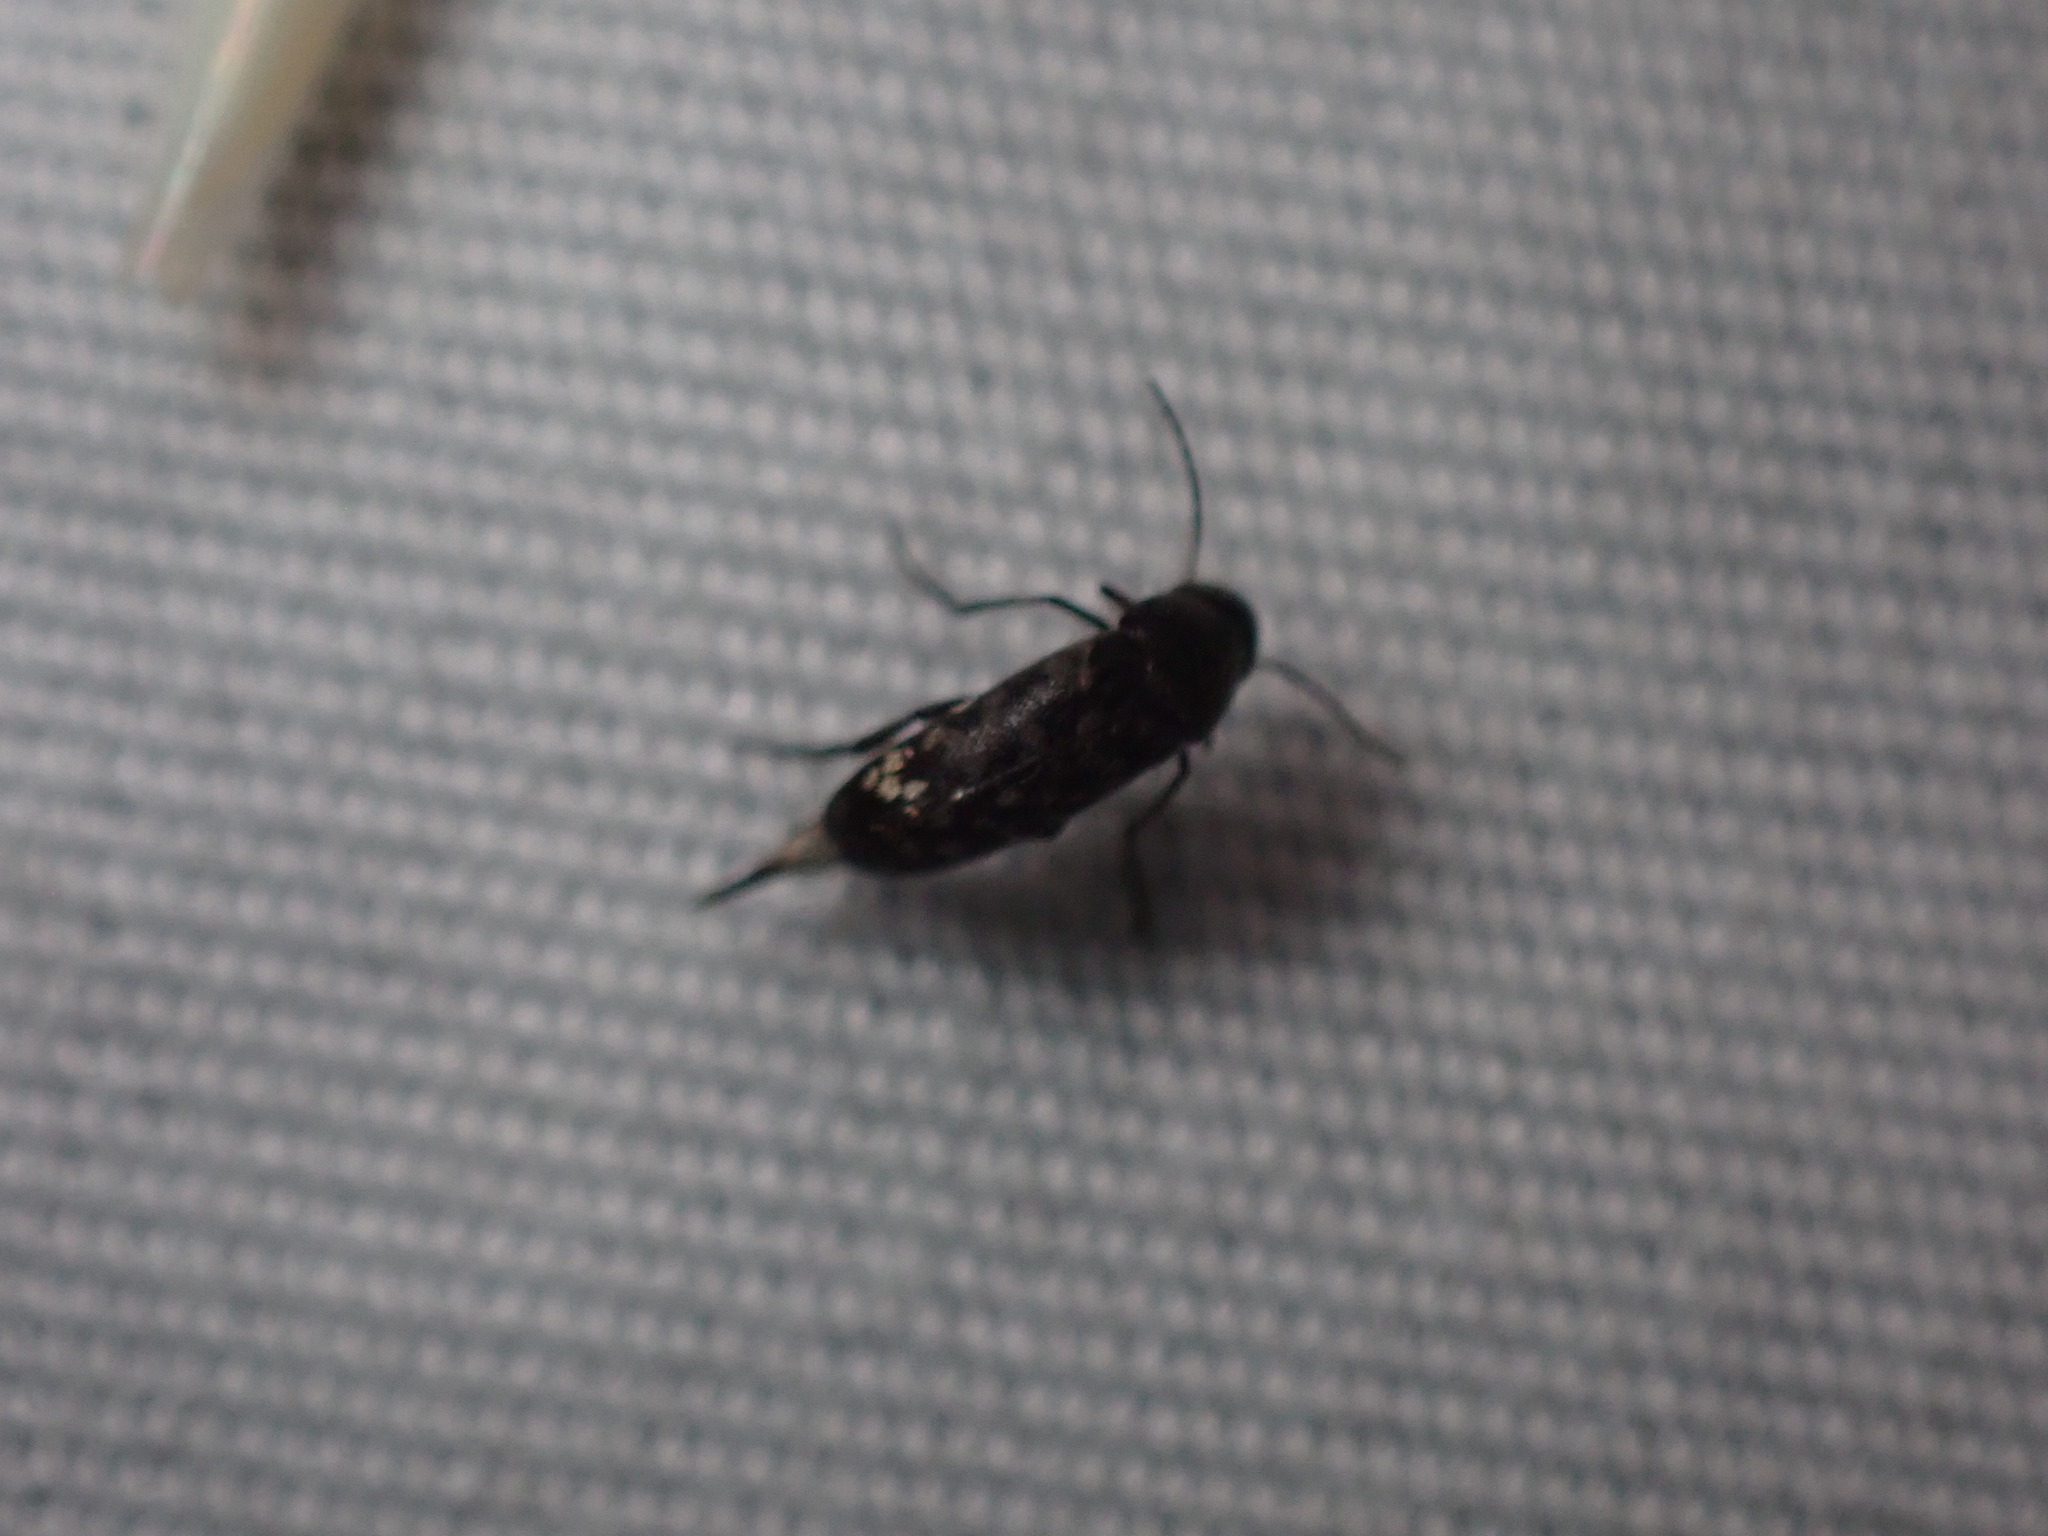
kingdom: Animalia
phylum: Arthropoda
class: Insecta
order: Coleoptera
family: Mordellidae
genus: Mordellina
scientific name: Mordellina pustulata
